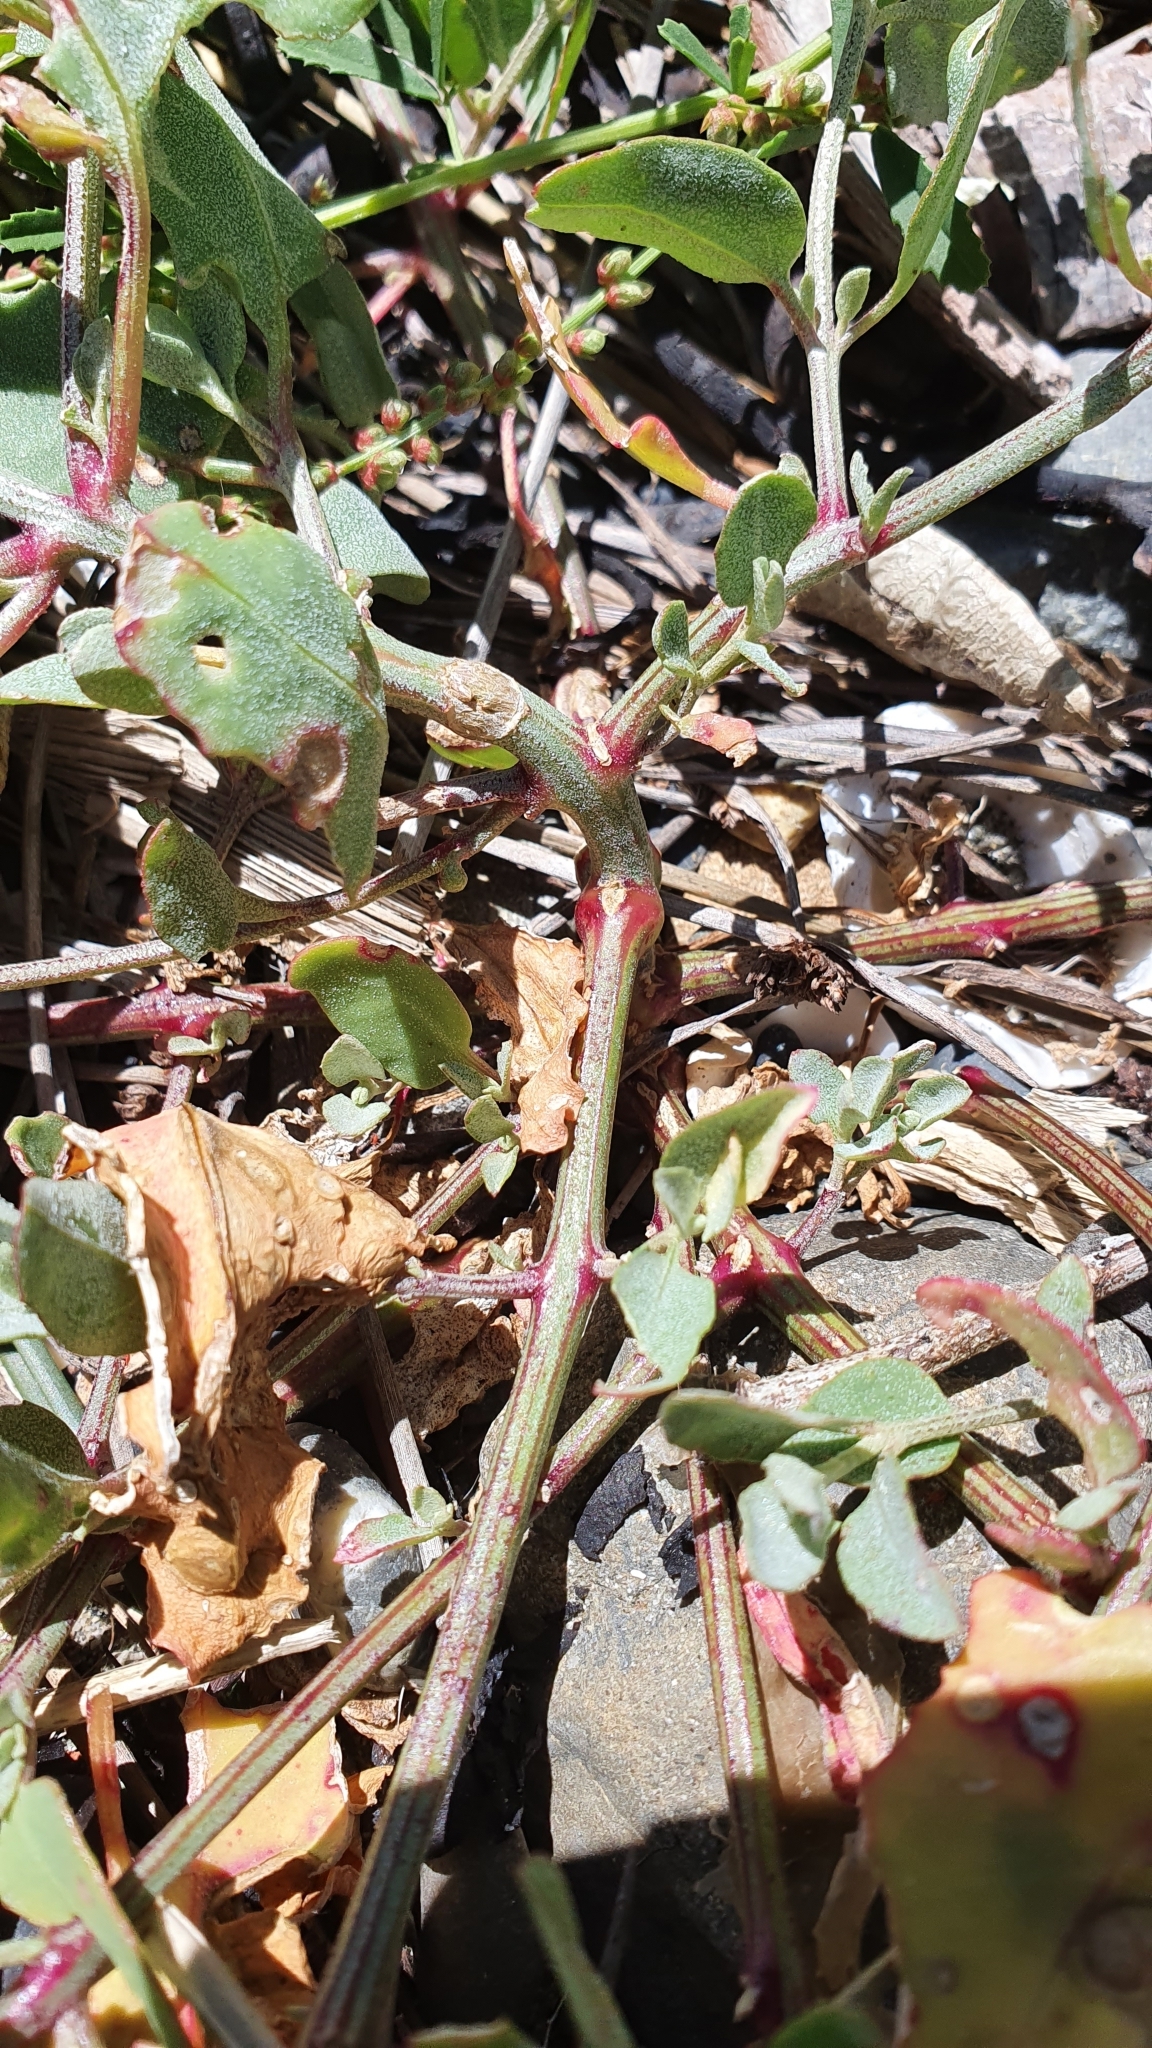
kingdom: Plantae
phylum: Tracheophyta
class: Magnoliopsida
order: Caryophyllales
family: Amaranthaceae
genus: Atriplex
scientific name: Atriplex prostrata
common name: Spear-leaved orache
